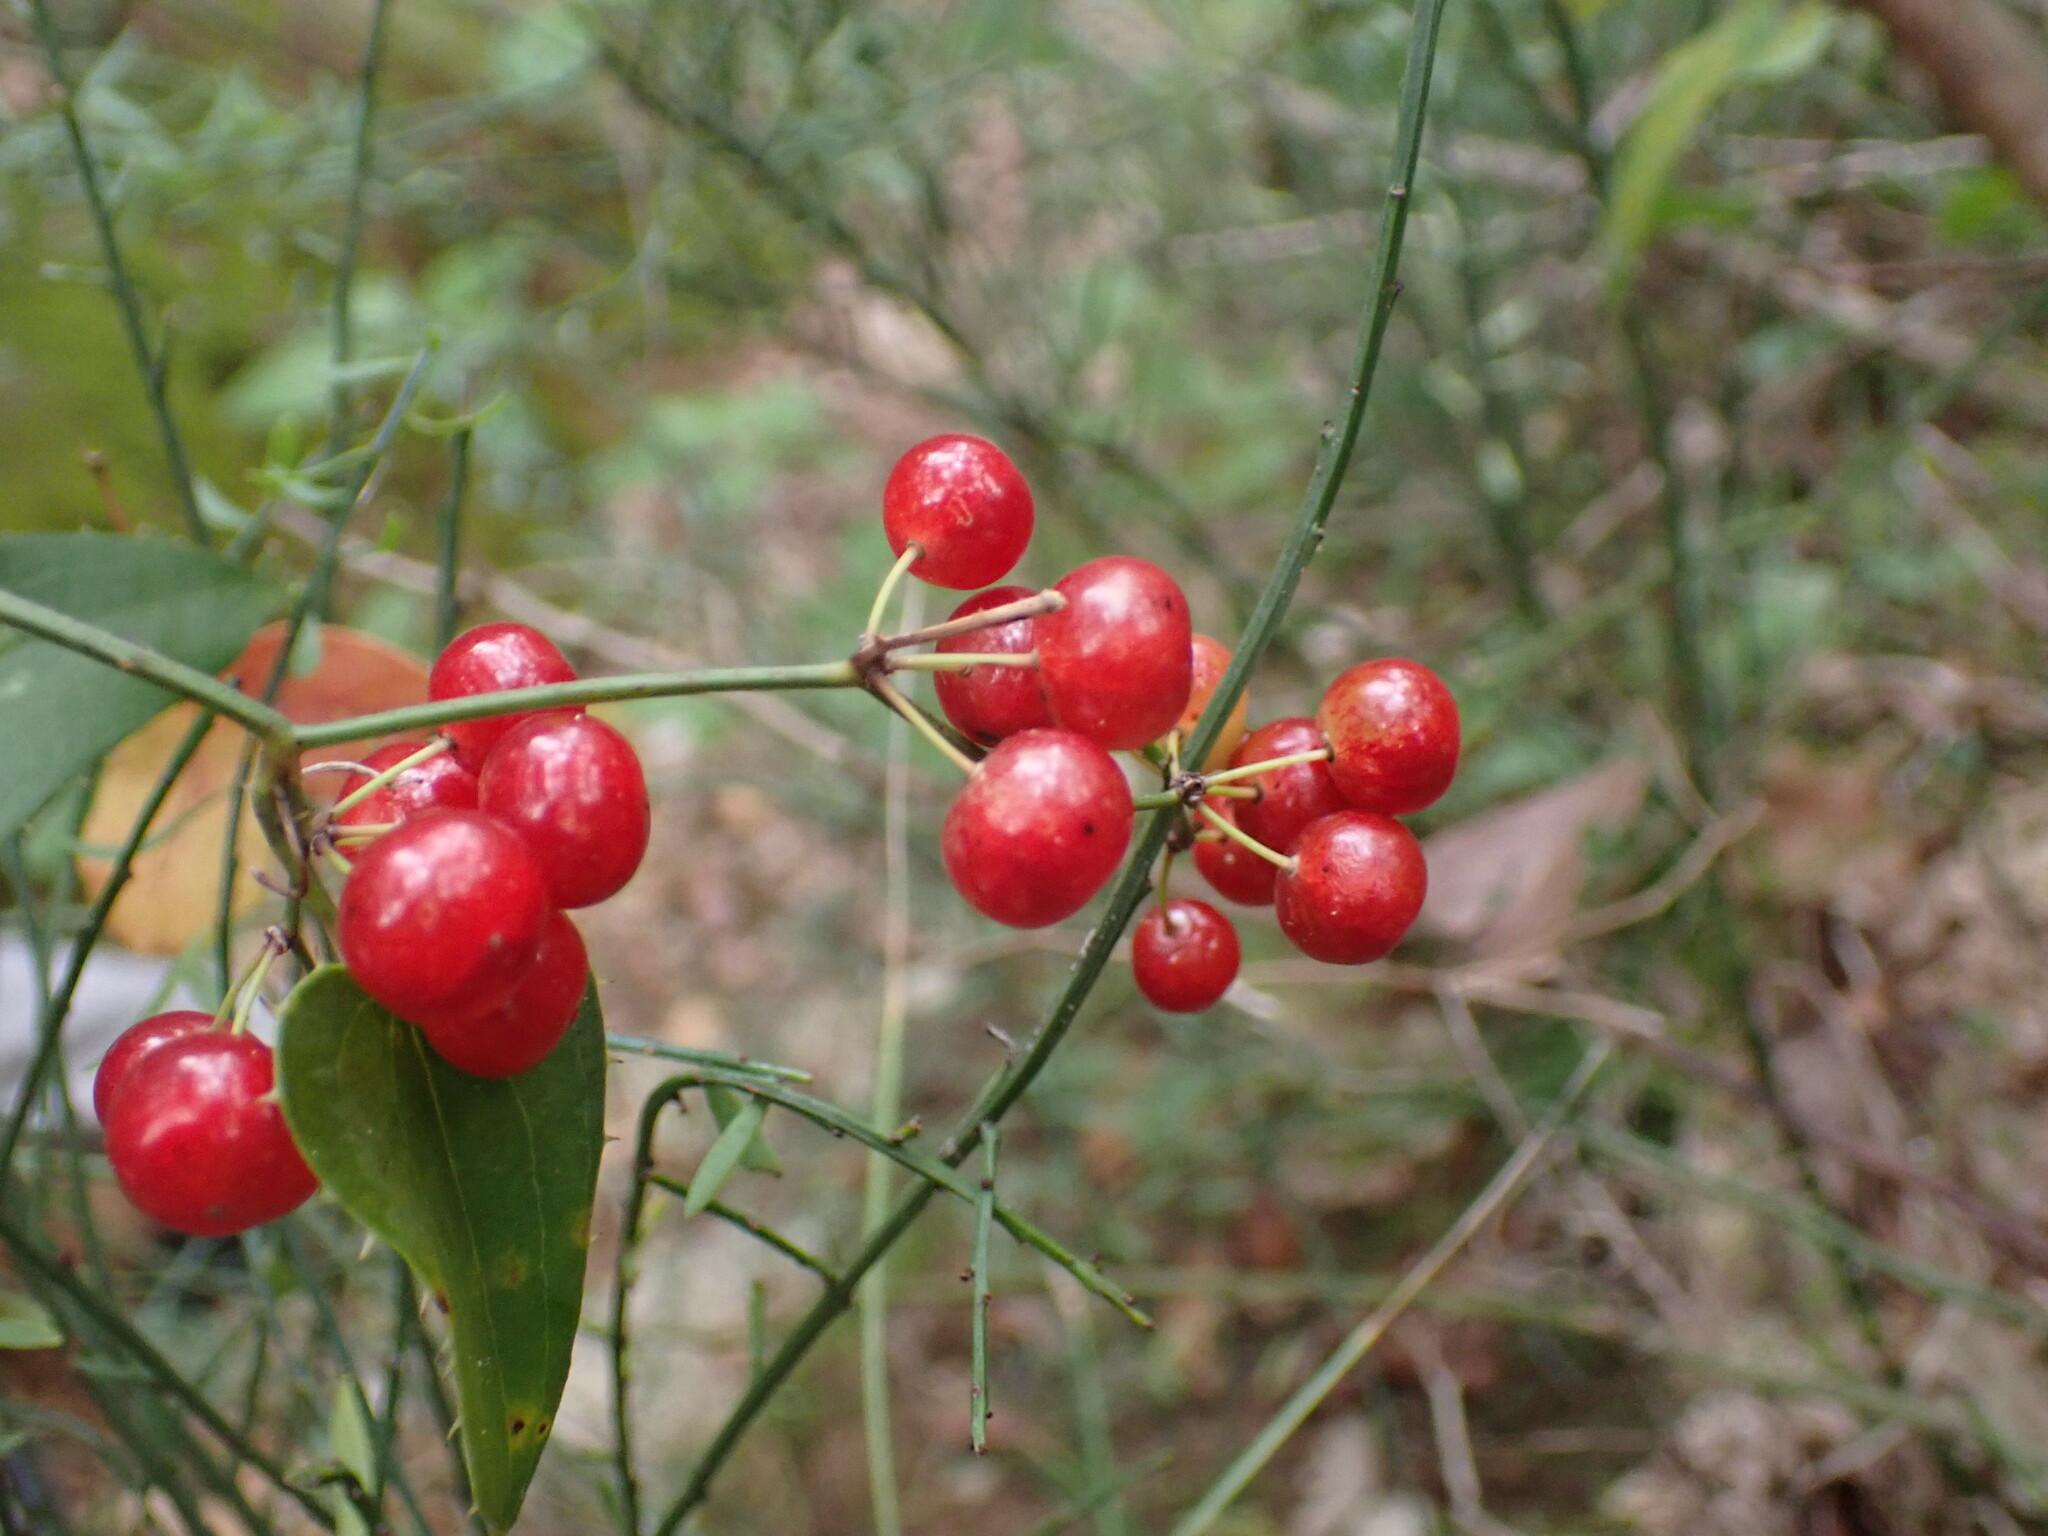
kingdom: Plantae
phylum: Tracheophyta
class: Liliopsida
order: Liliales
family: Smilacaceae
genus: Smilax
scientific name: Smilax aspera
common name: Common smilax
